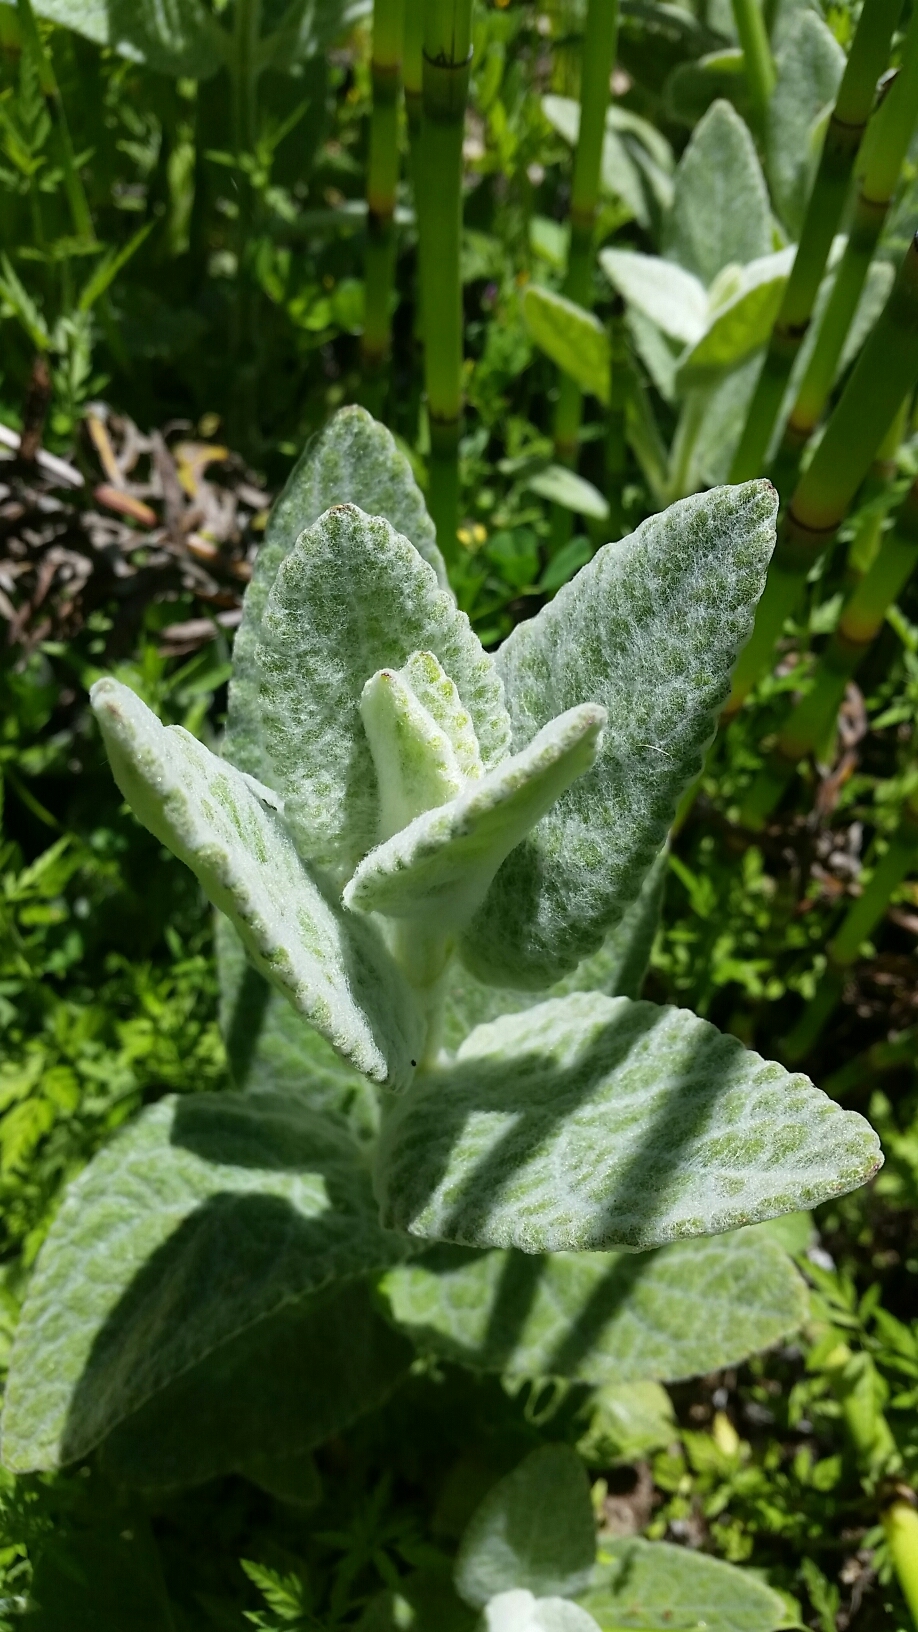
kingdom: Plantae
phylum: Tracheophyta
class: Magnoliopsida
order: Lamiales
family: Lamiaceae
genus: Stachys
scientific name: Stachys albens
